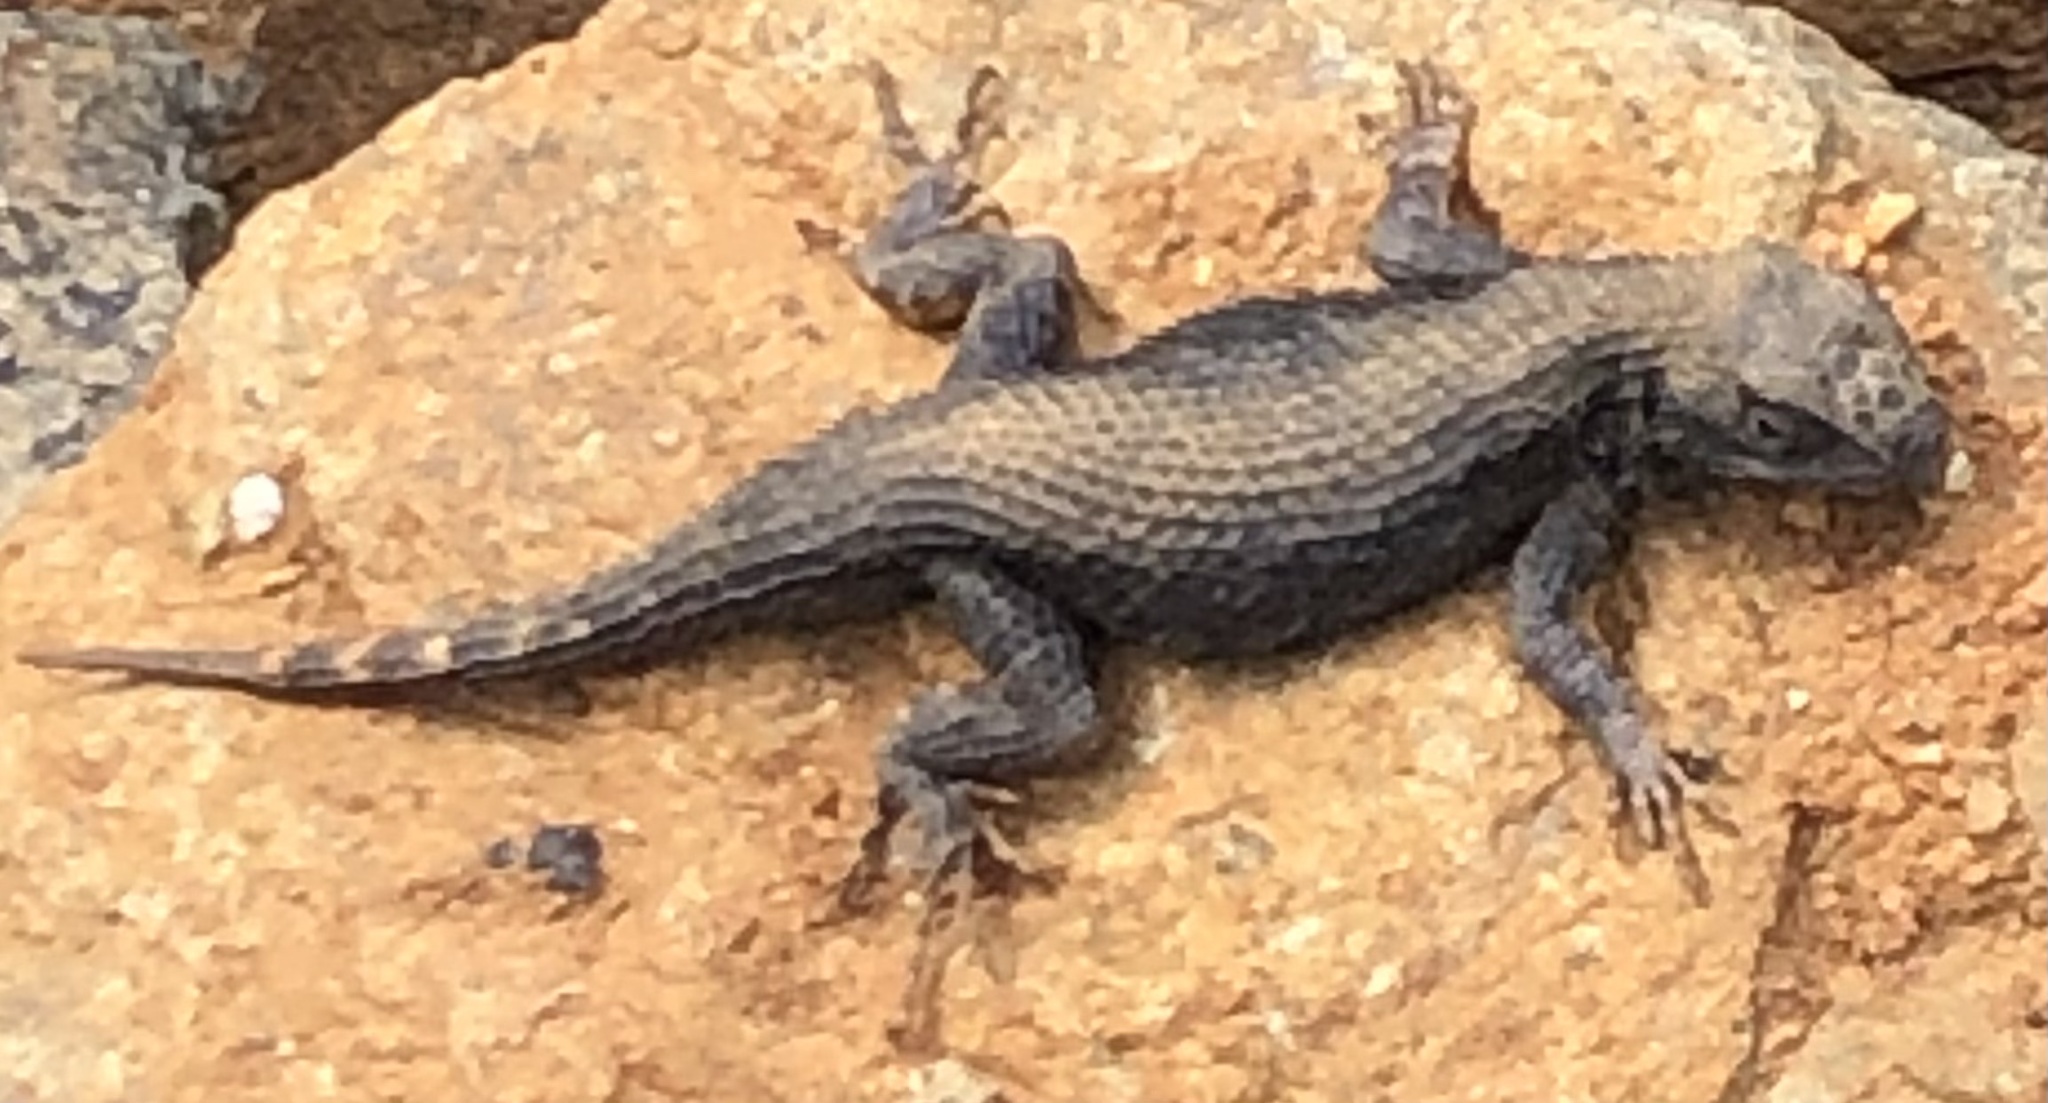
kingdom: Animalia
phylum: Chordata
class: Squamata
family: Phrynosomatidae
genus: Sceloporus
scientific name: Sceloporus occidentalis
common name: Western fence lizard
